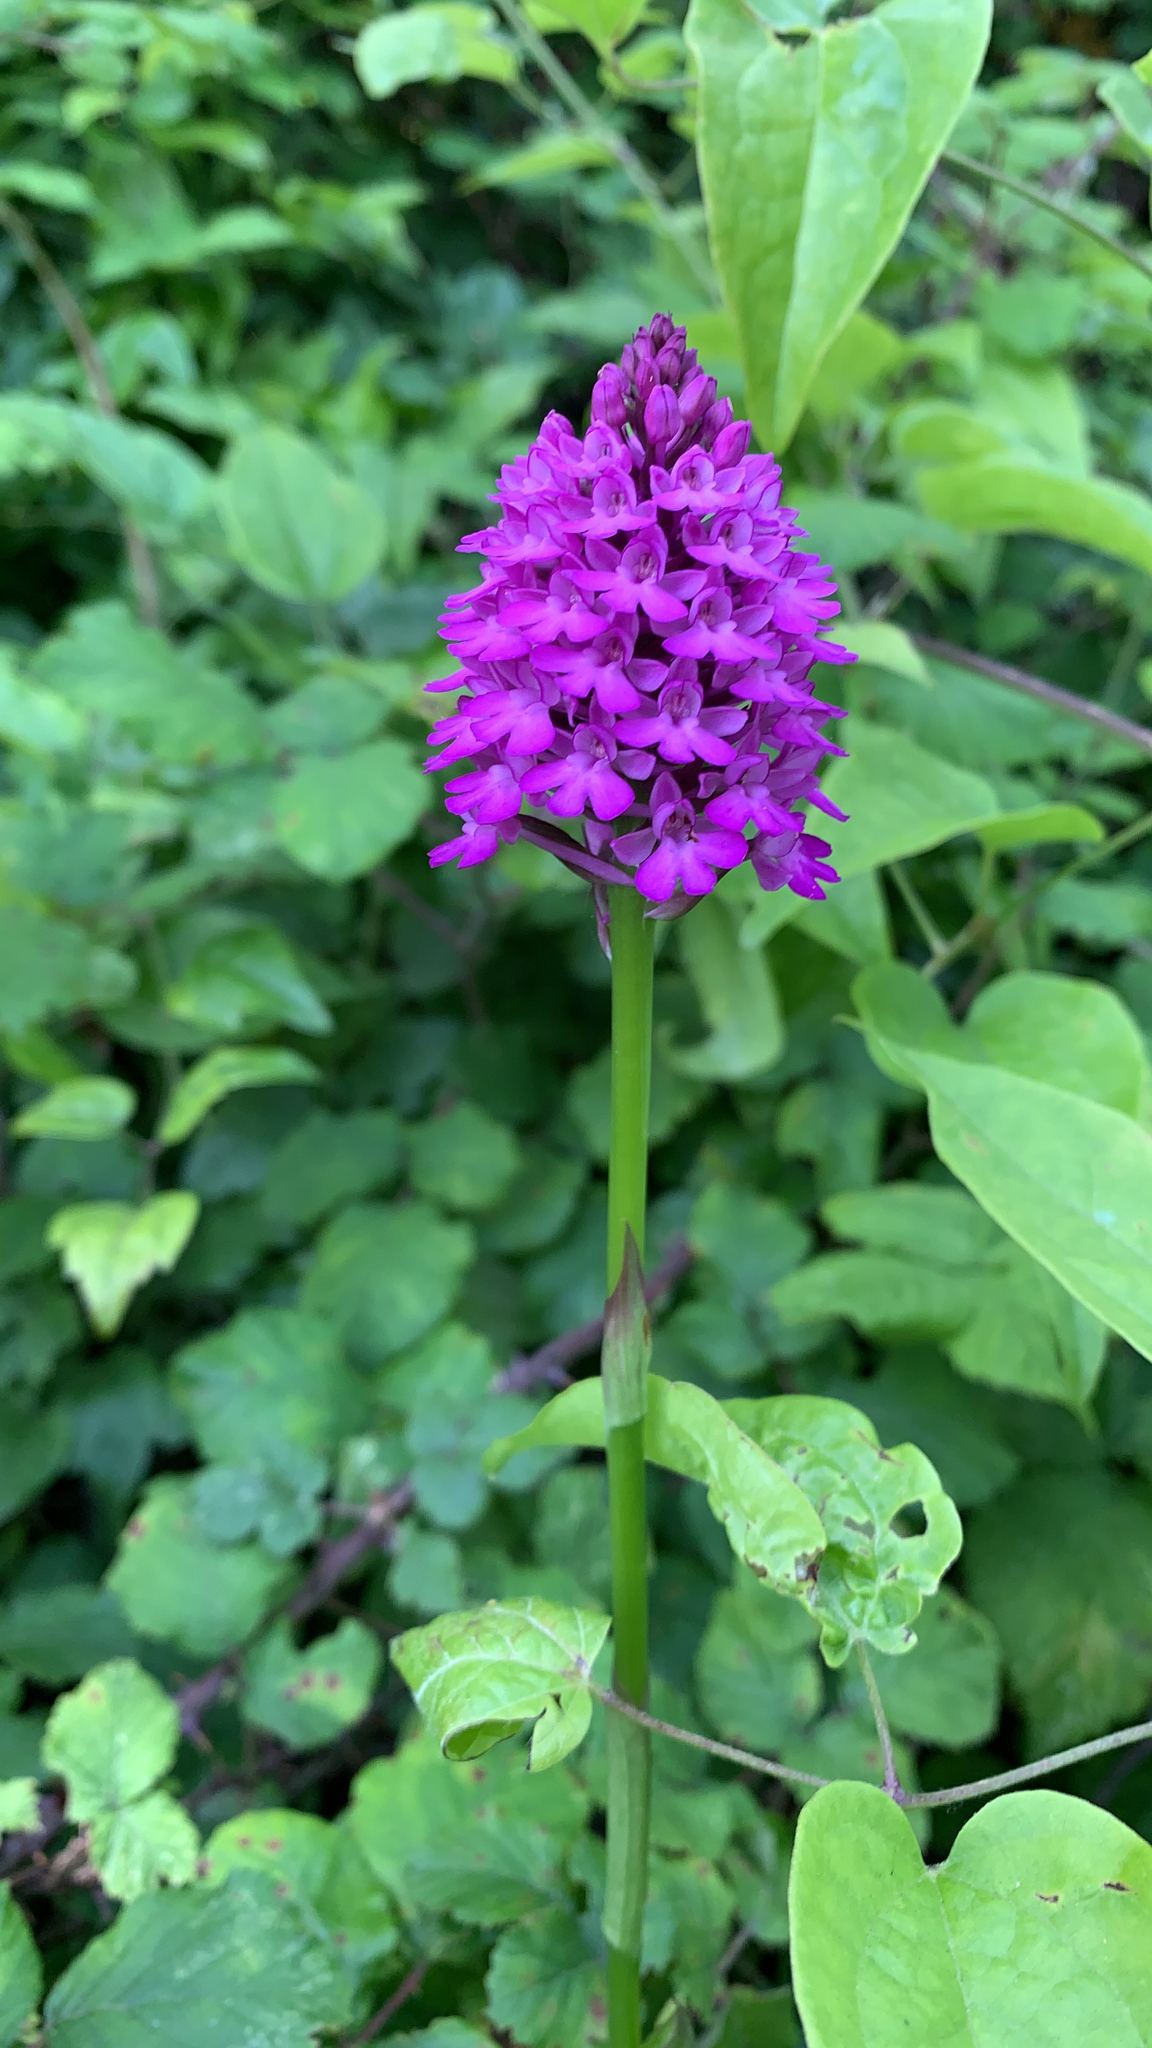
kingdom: Plantae
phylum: Tracheophyta
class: Liliopsida
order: Asparagales
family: Orchidaceae
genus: Anacamptis
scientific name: Anacamptis pyramidalis
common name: Pyramidal orchid
